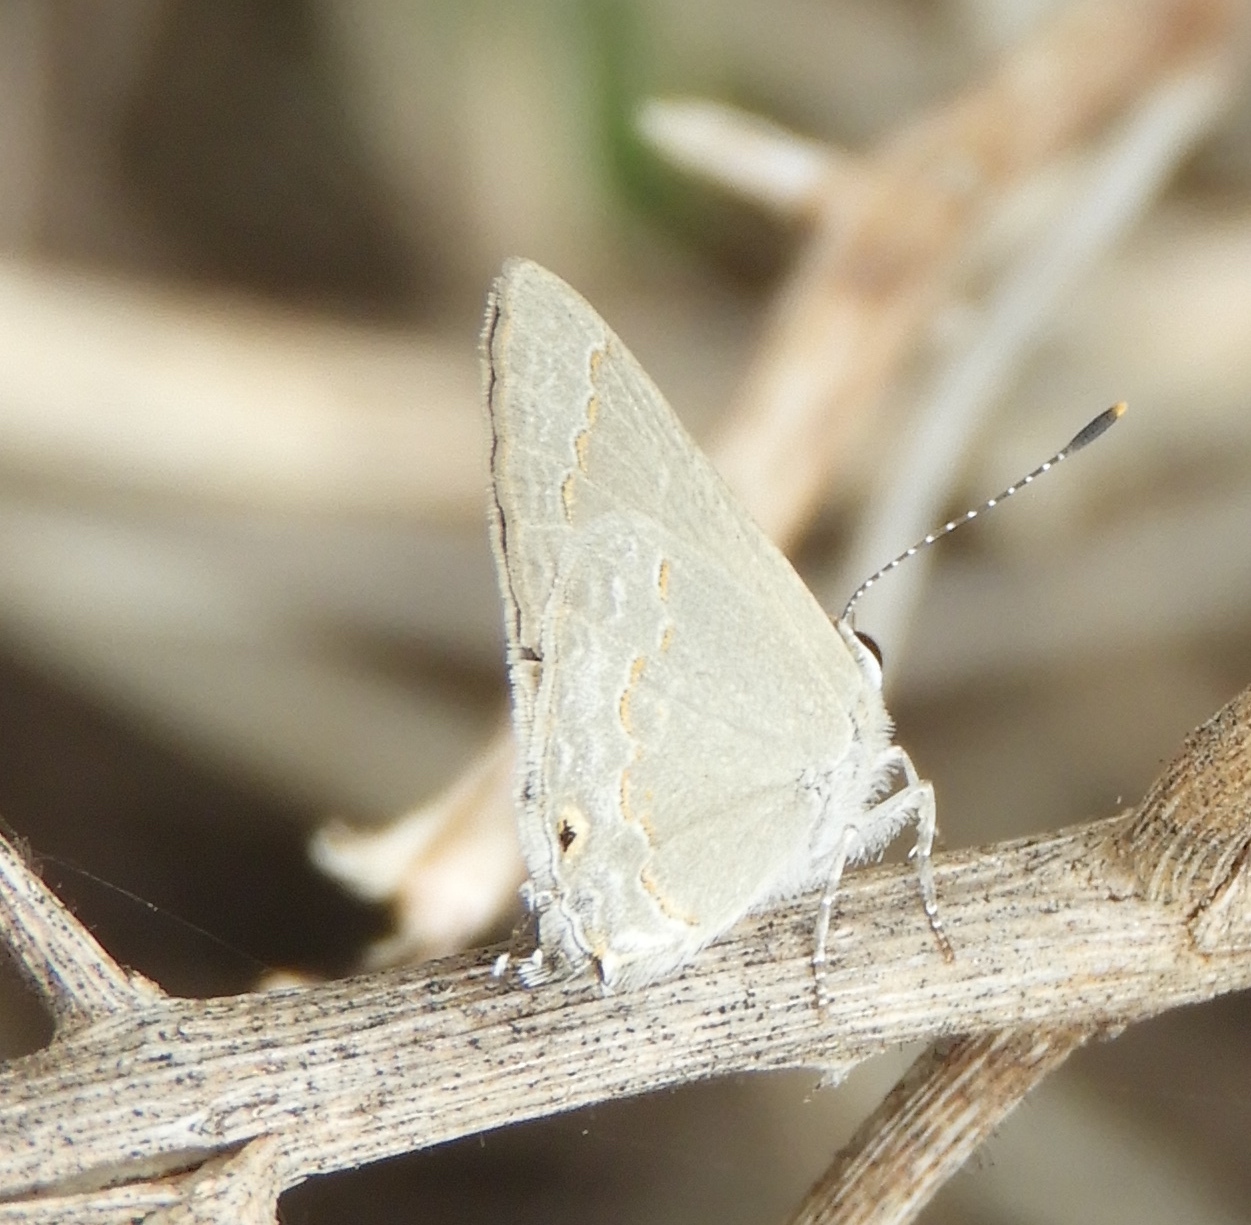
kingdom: Animalia
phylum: Arthropoda
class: Insecta
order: Lepidoptera
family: Lycaenidae
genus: Thecla
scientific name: Thecla rufofusca
